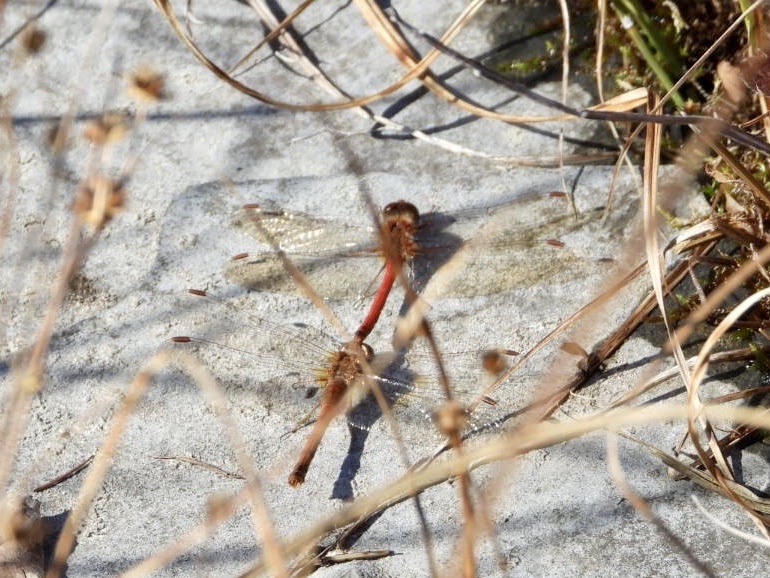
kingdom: Animalia
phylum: Arthropoda
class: Insecta
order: Odonata
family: Libellulidae
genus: Sympetrum
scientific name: Sympetrum vicinum
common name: Autumn meadowhawk
